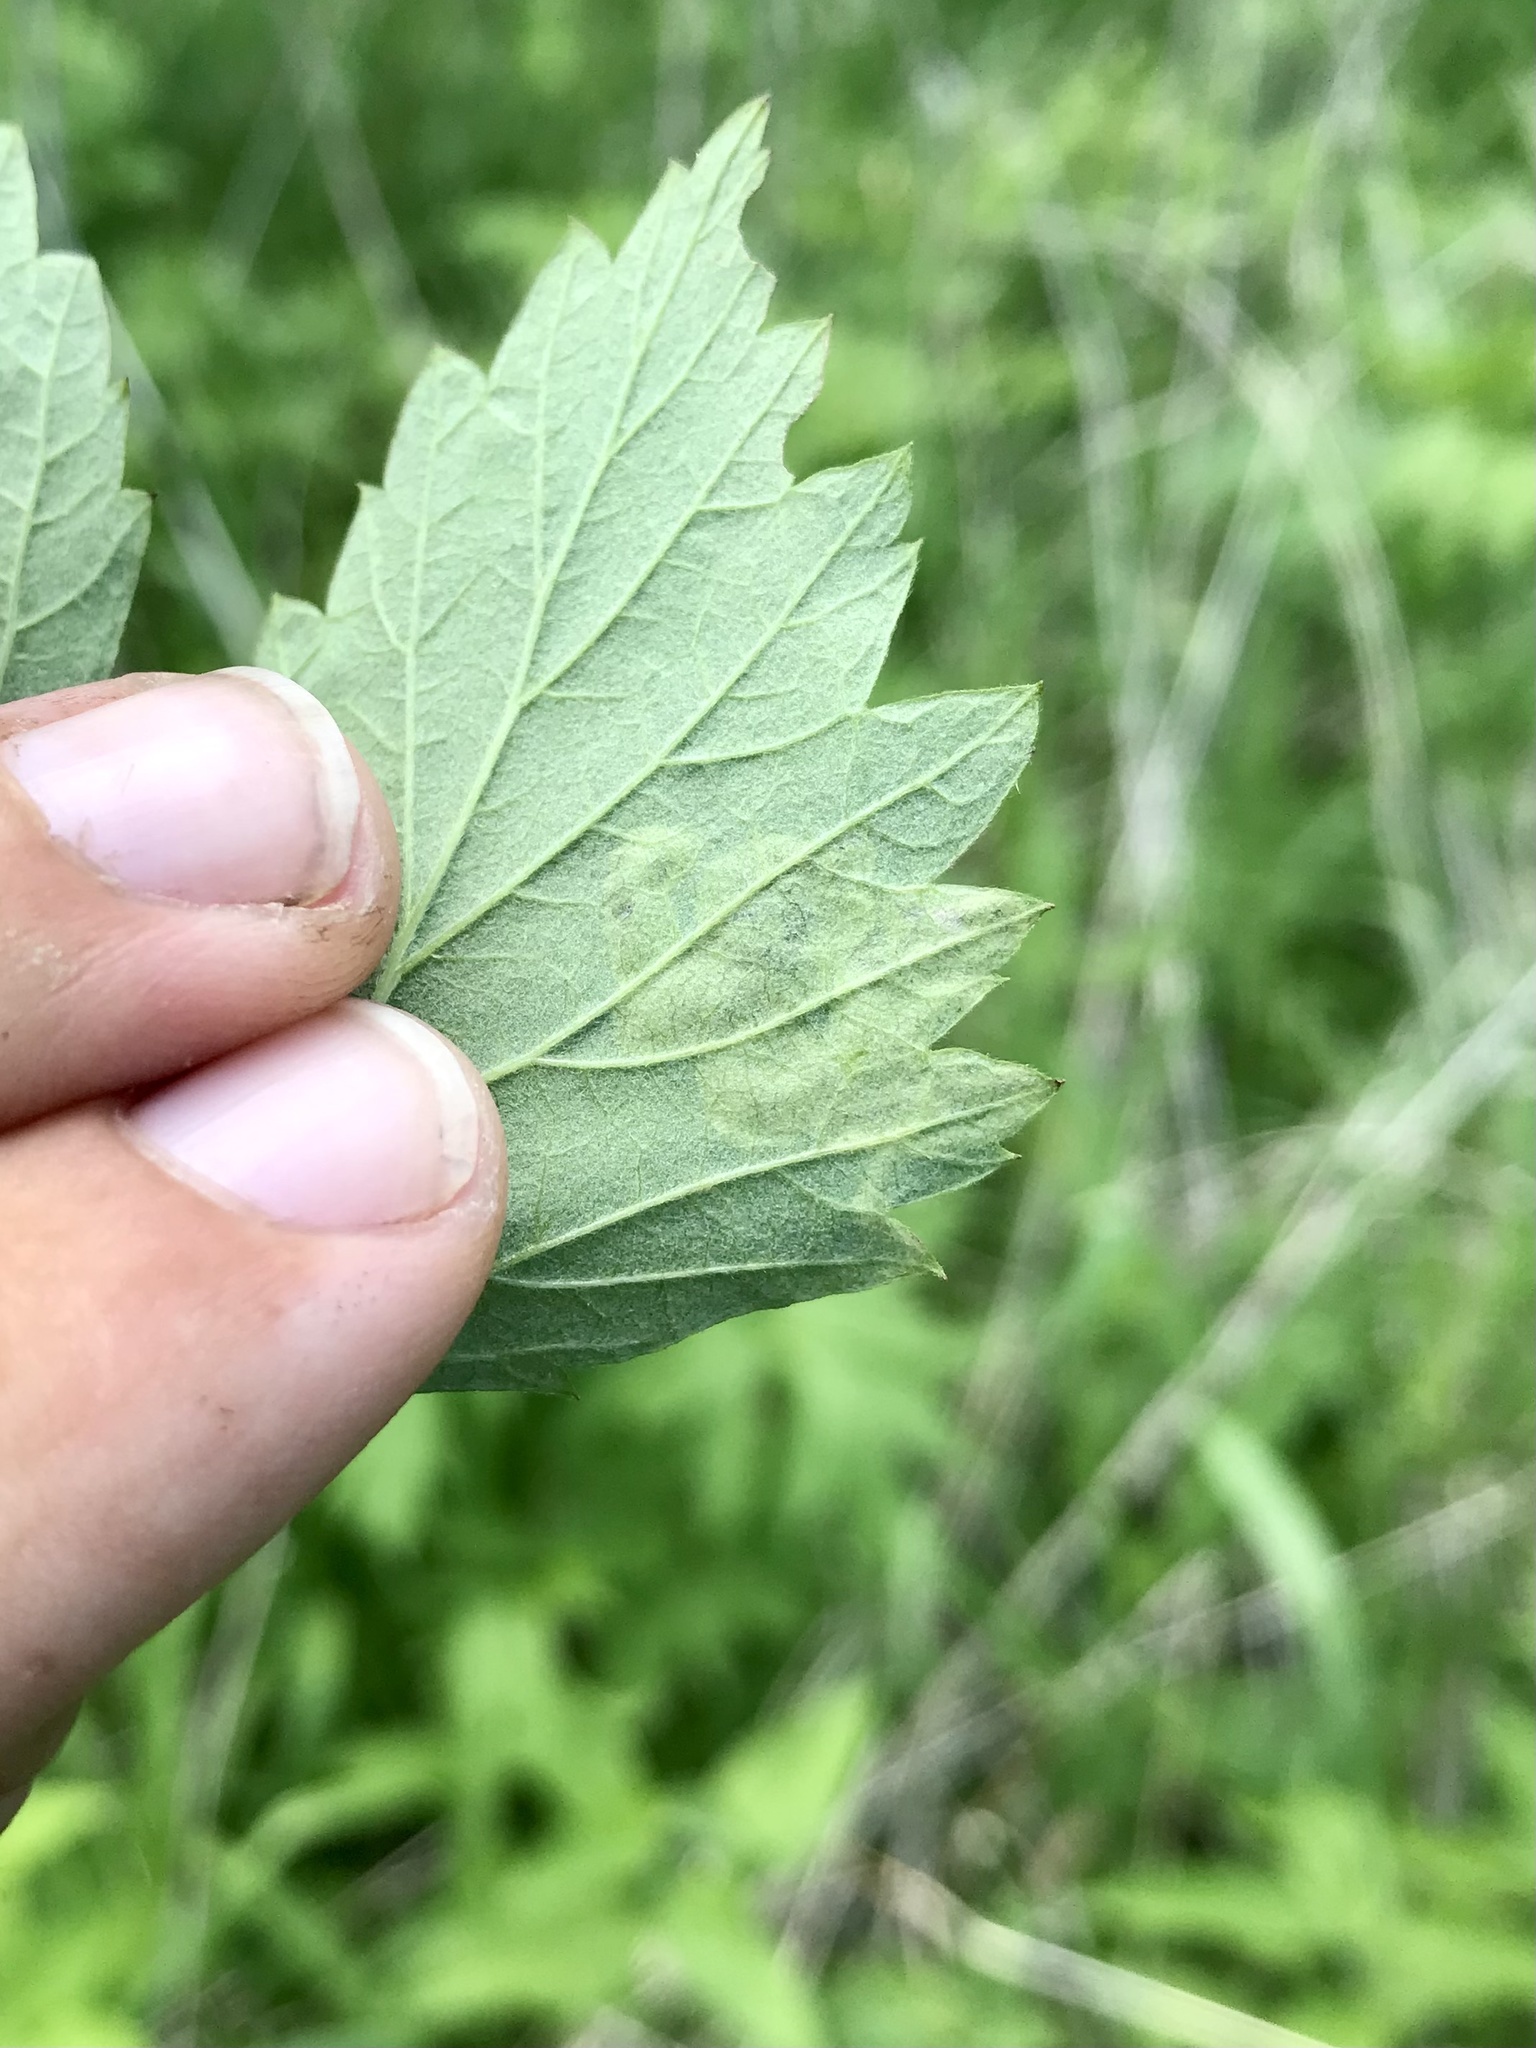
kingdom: Animalia
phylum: Arthropoda
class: Insecta
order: Diptera
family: Agromyzidae
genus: Agromyza
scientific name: Agromyza princei
